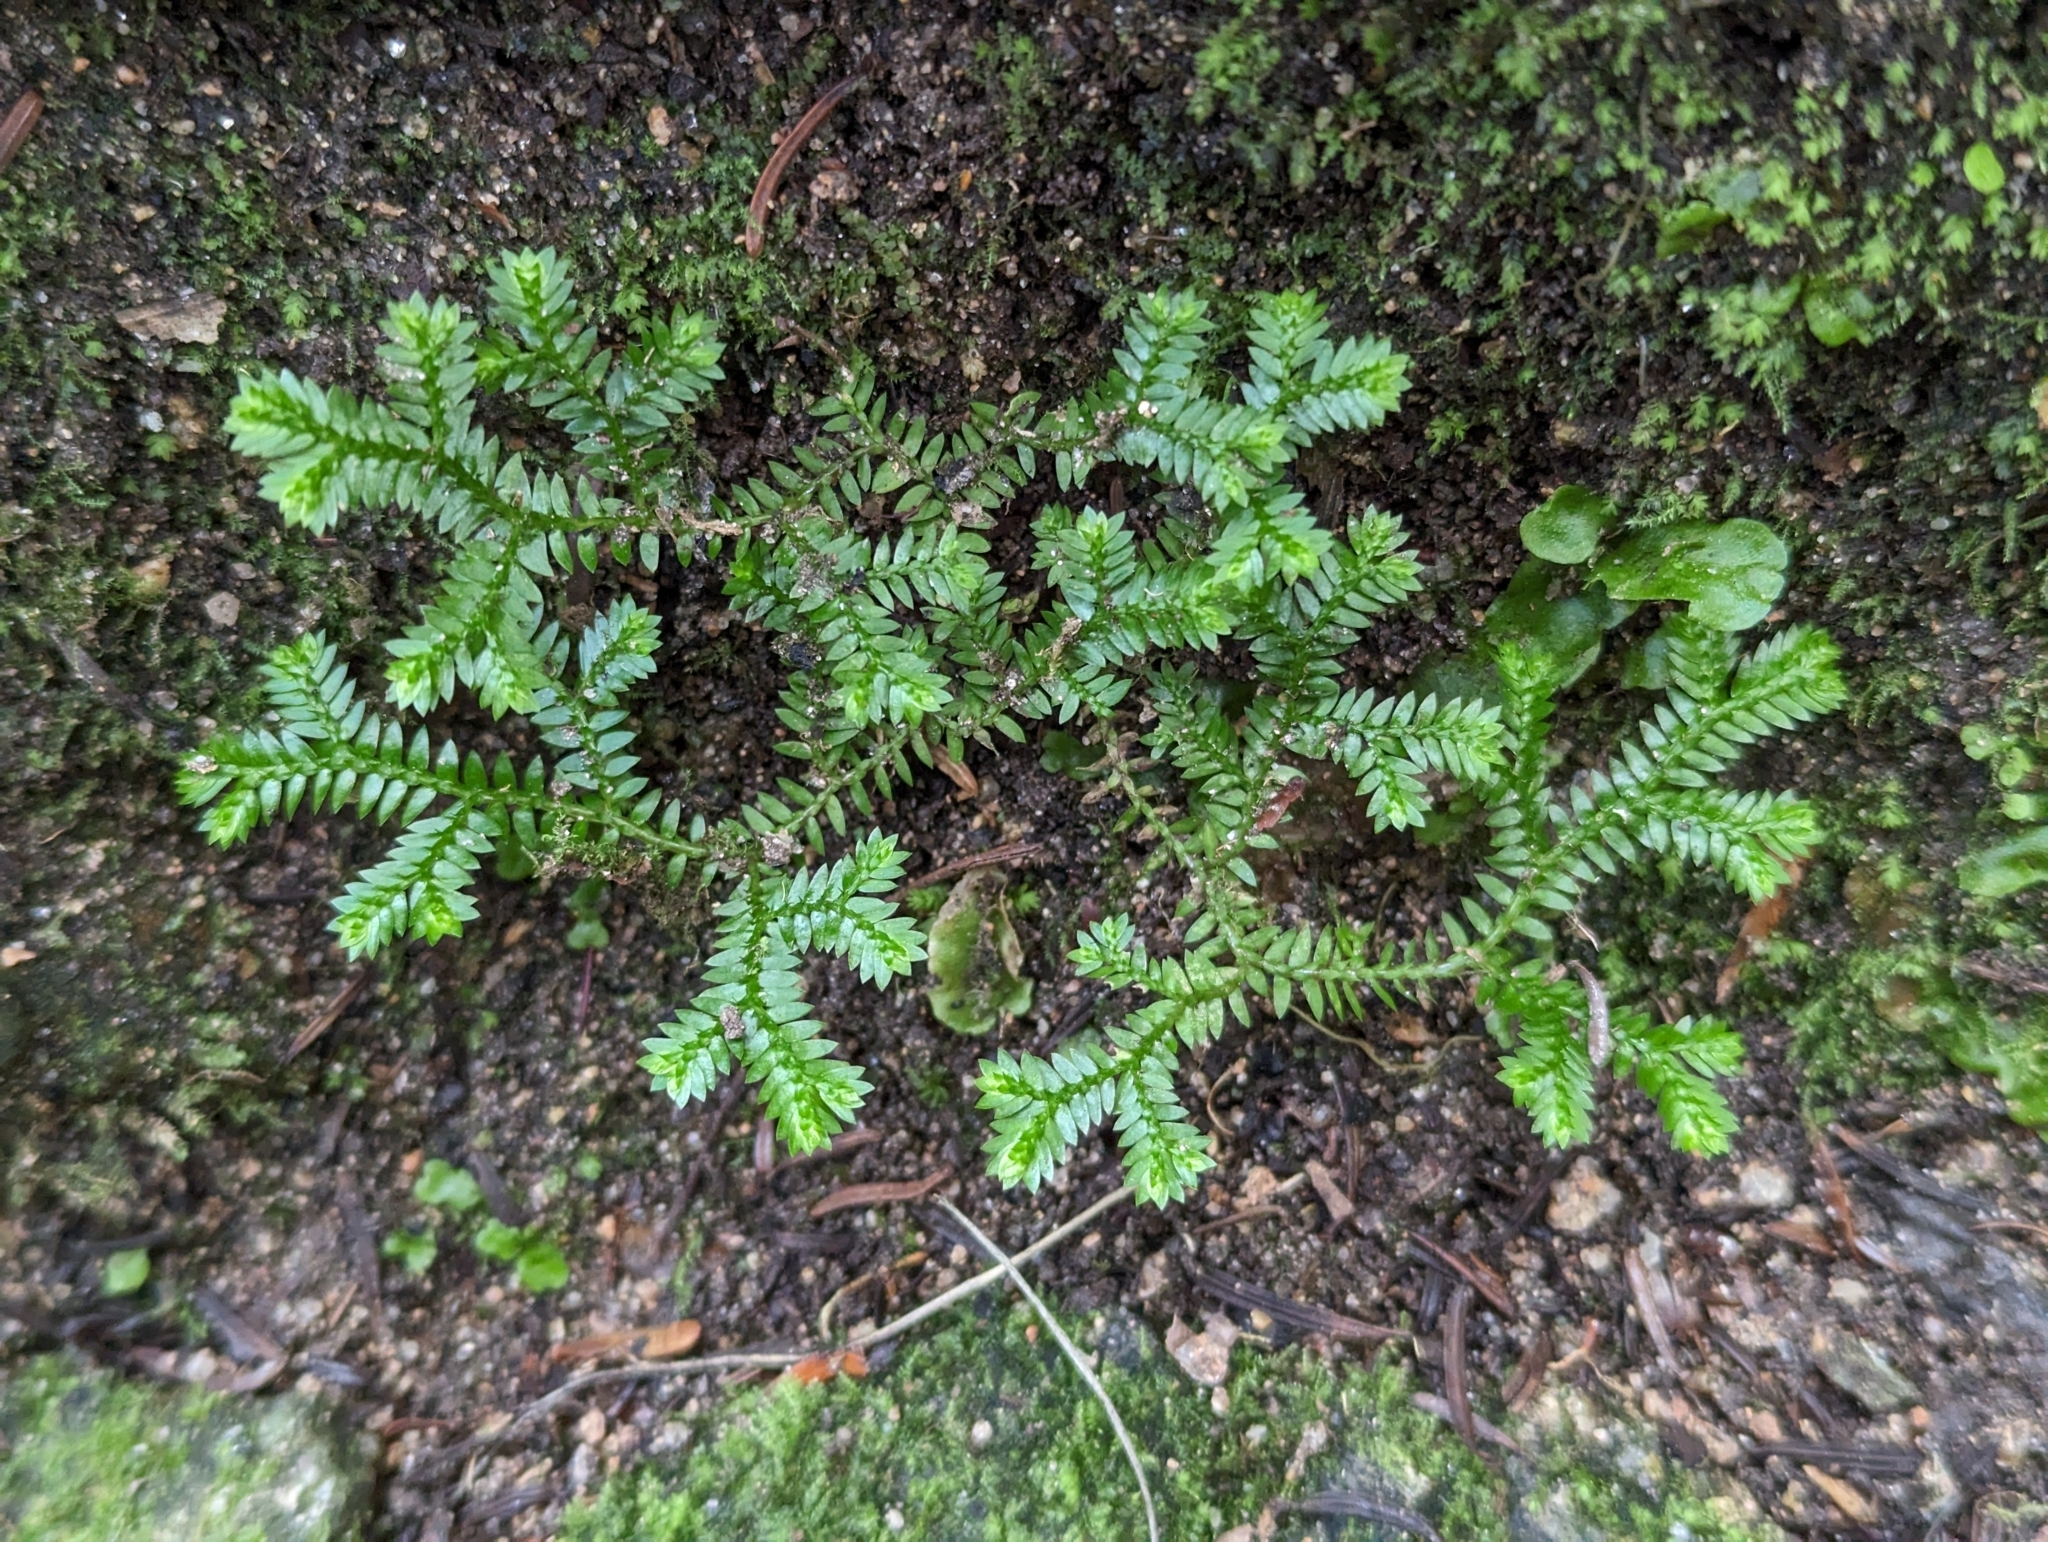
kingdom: Plantae
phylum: Tracheophyta
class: Lycopodiopsida
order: Selaginellales
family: Selaginellaceae
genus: Selaginella
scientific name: Selaginella kraussiana
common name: Krauss' spikemoss
